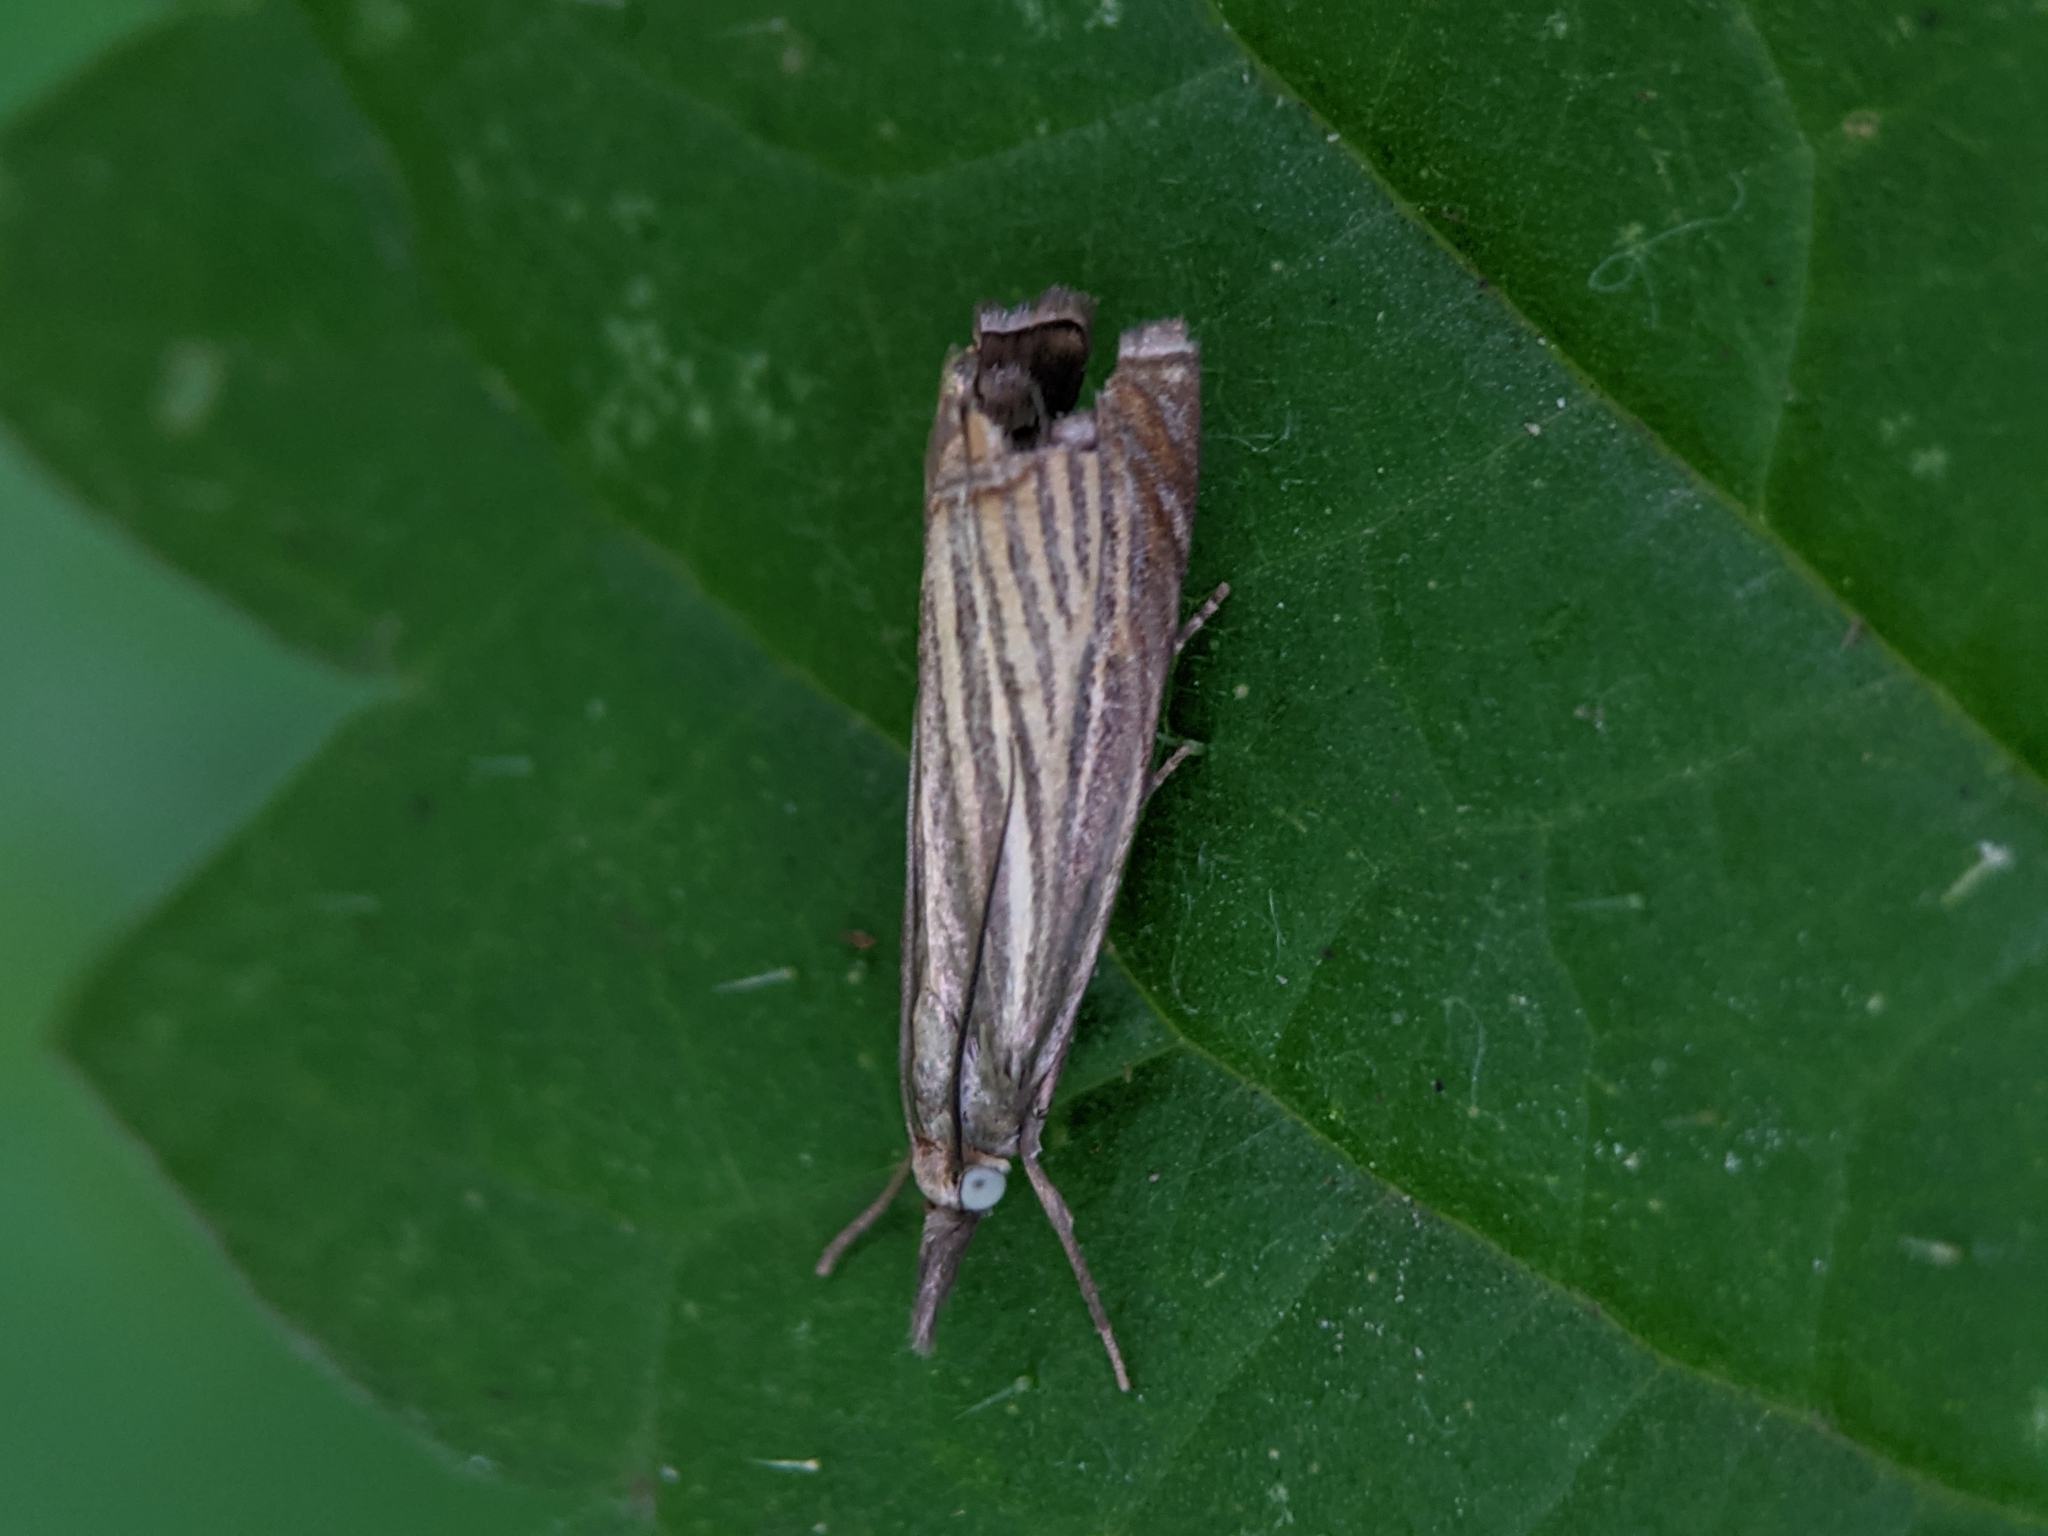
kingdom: Animalia
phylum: Arthropoda
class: Insecta
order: Lepidoptera
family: Crambidae
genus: Chrysoteuchia
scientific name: Chrysoteuchia culmella
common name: Garden grass-veneer
